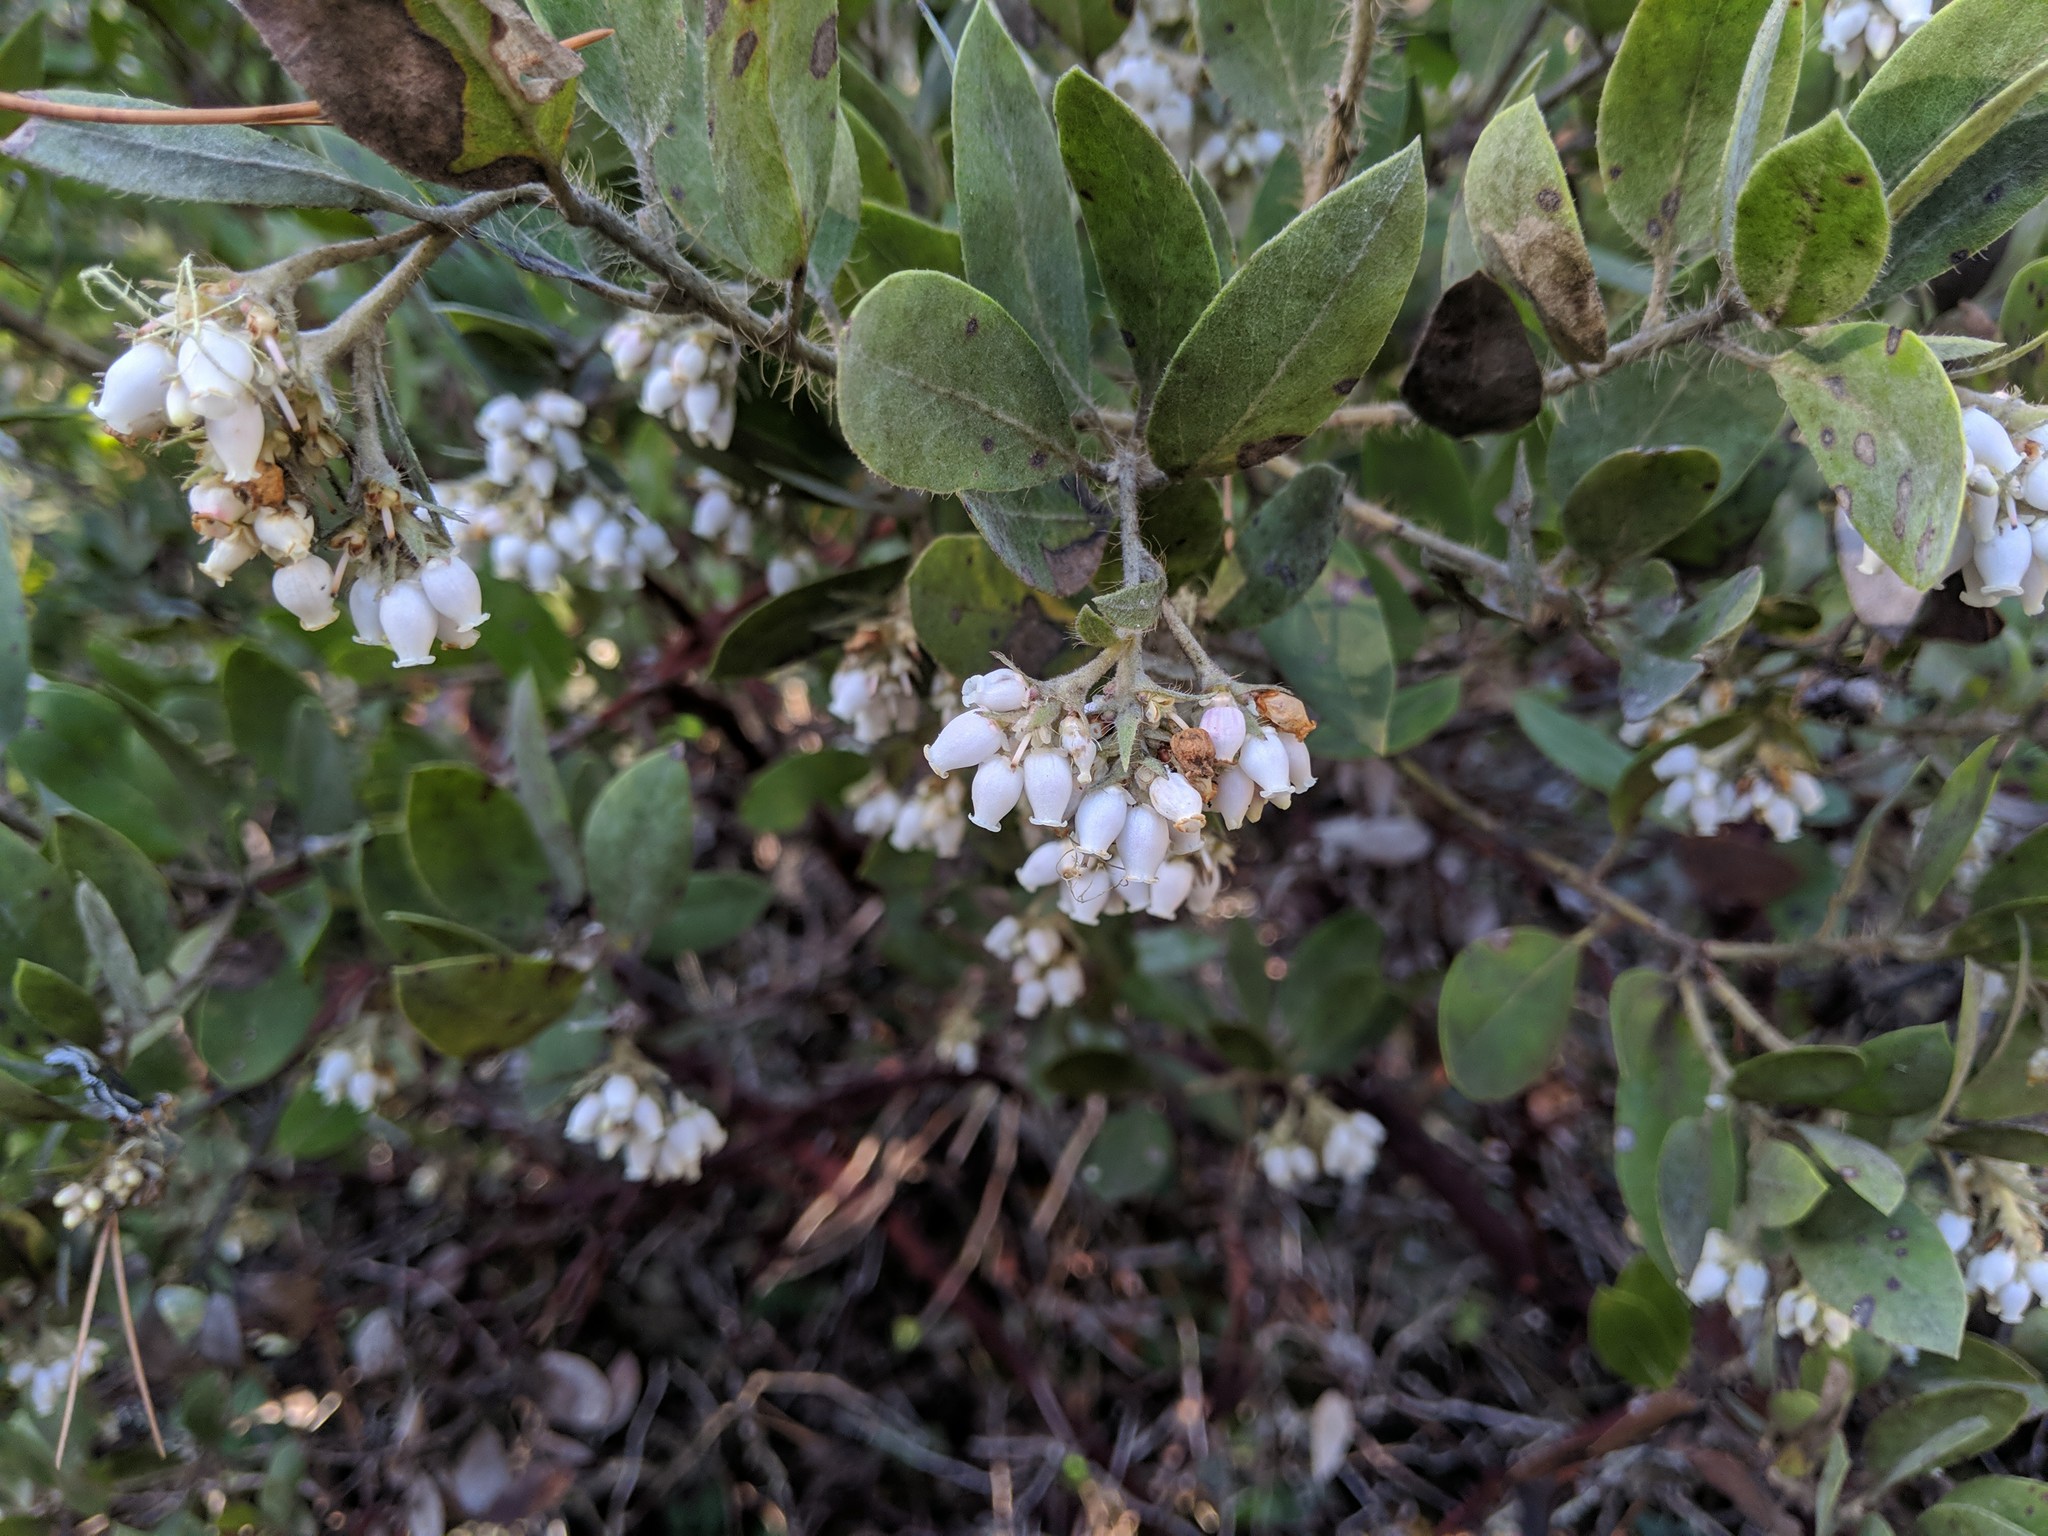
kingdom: Plantae
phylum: Tracheophyta
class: Magnoliopsida
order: Ericales
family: Ericaceae
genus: Arctostaphylos
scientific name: Arctostaphylos columbiana
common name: Bristly bearberry
